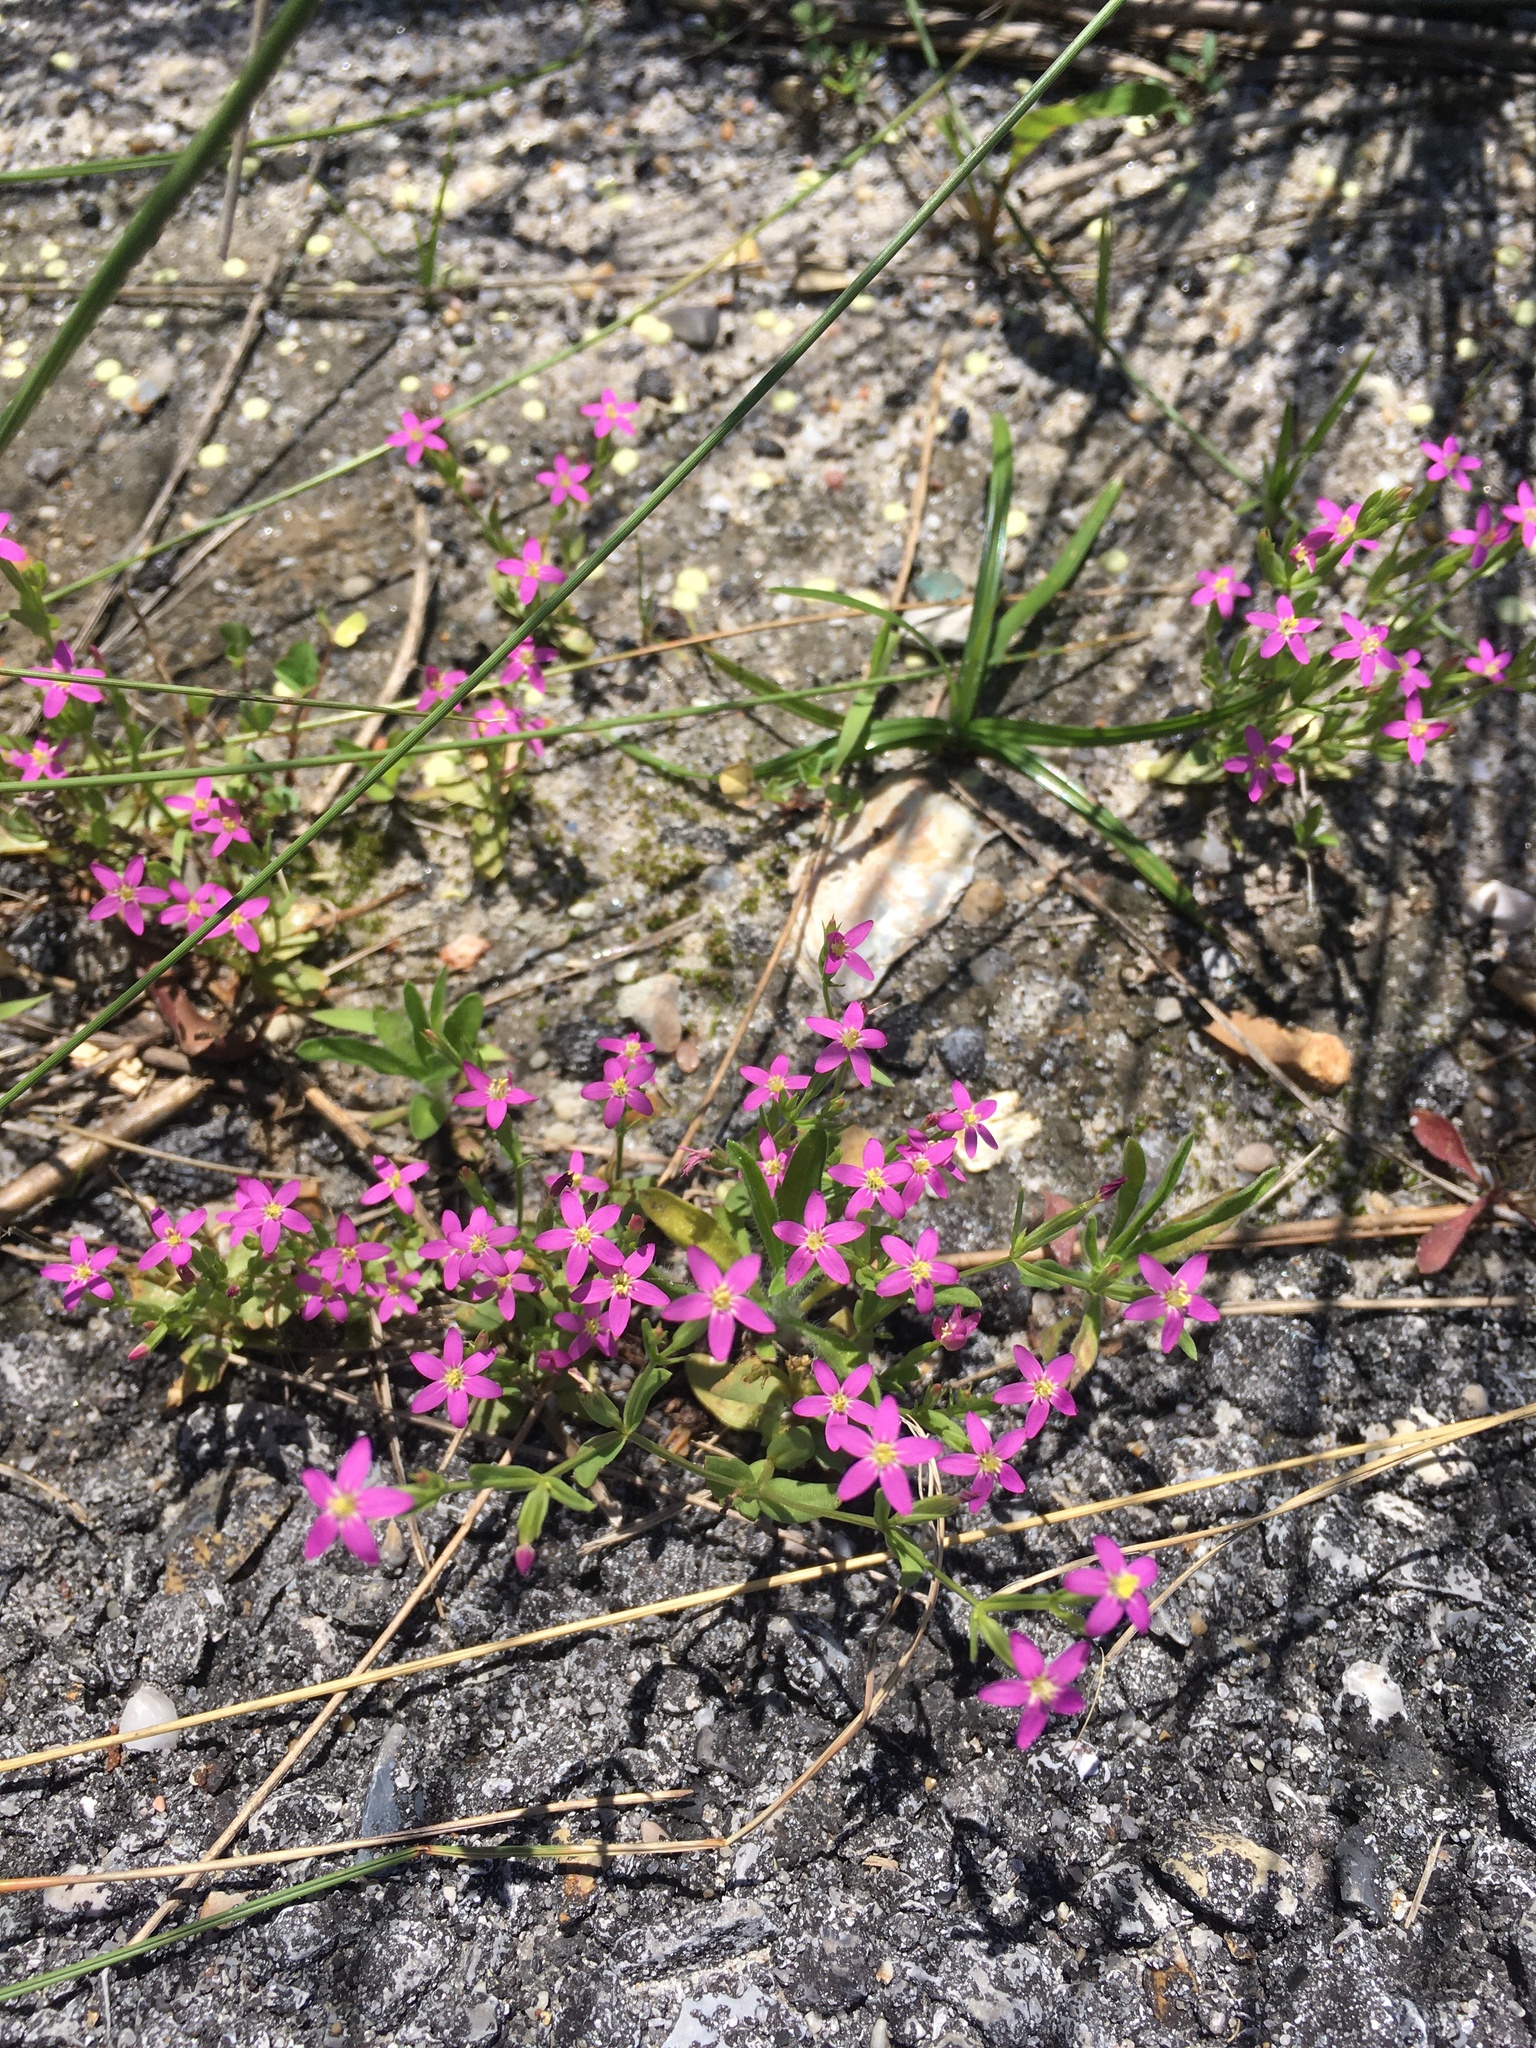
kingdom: Plantae
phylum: Tracheophyta
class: Magnoliopsida
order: Gentianales
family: Gentianaceae
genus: Centaurium
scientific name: Centaurium pulchellum
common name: Lesser centaury
